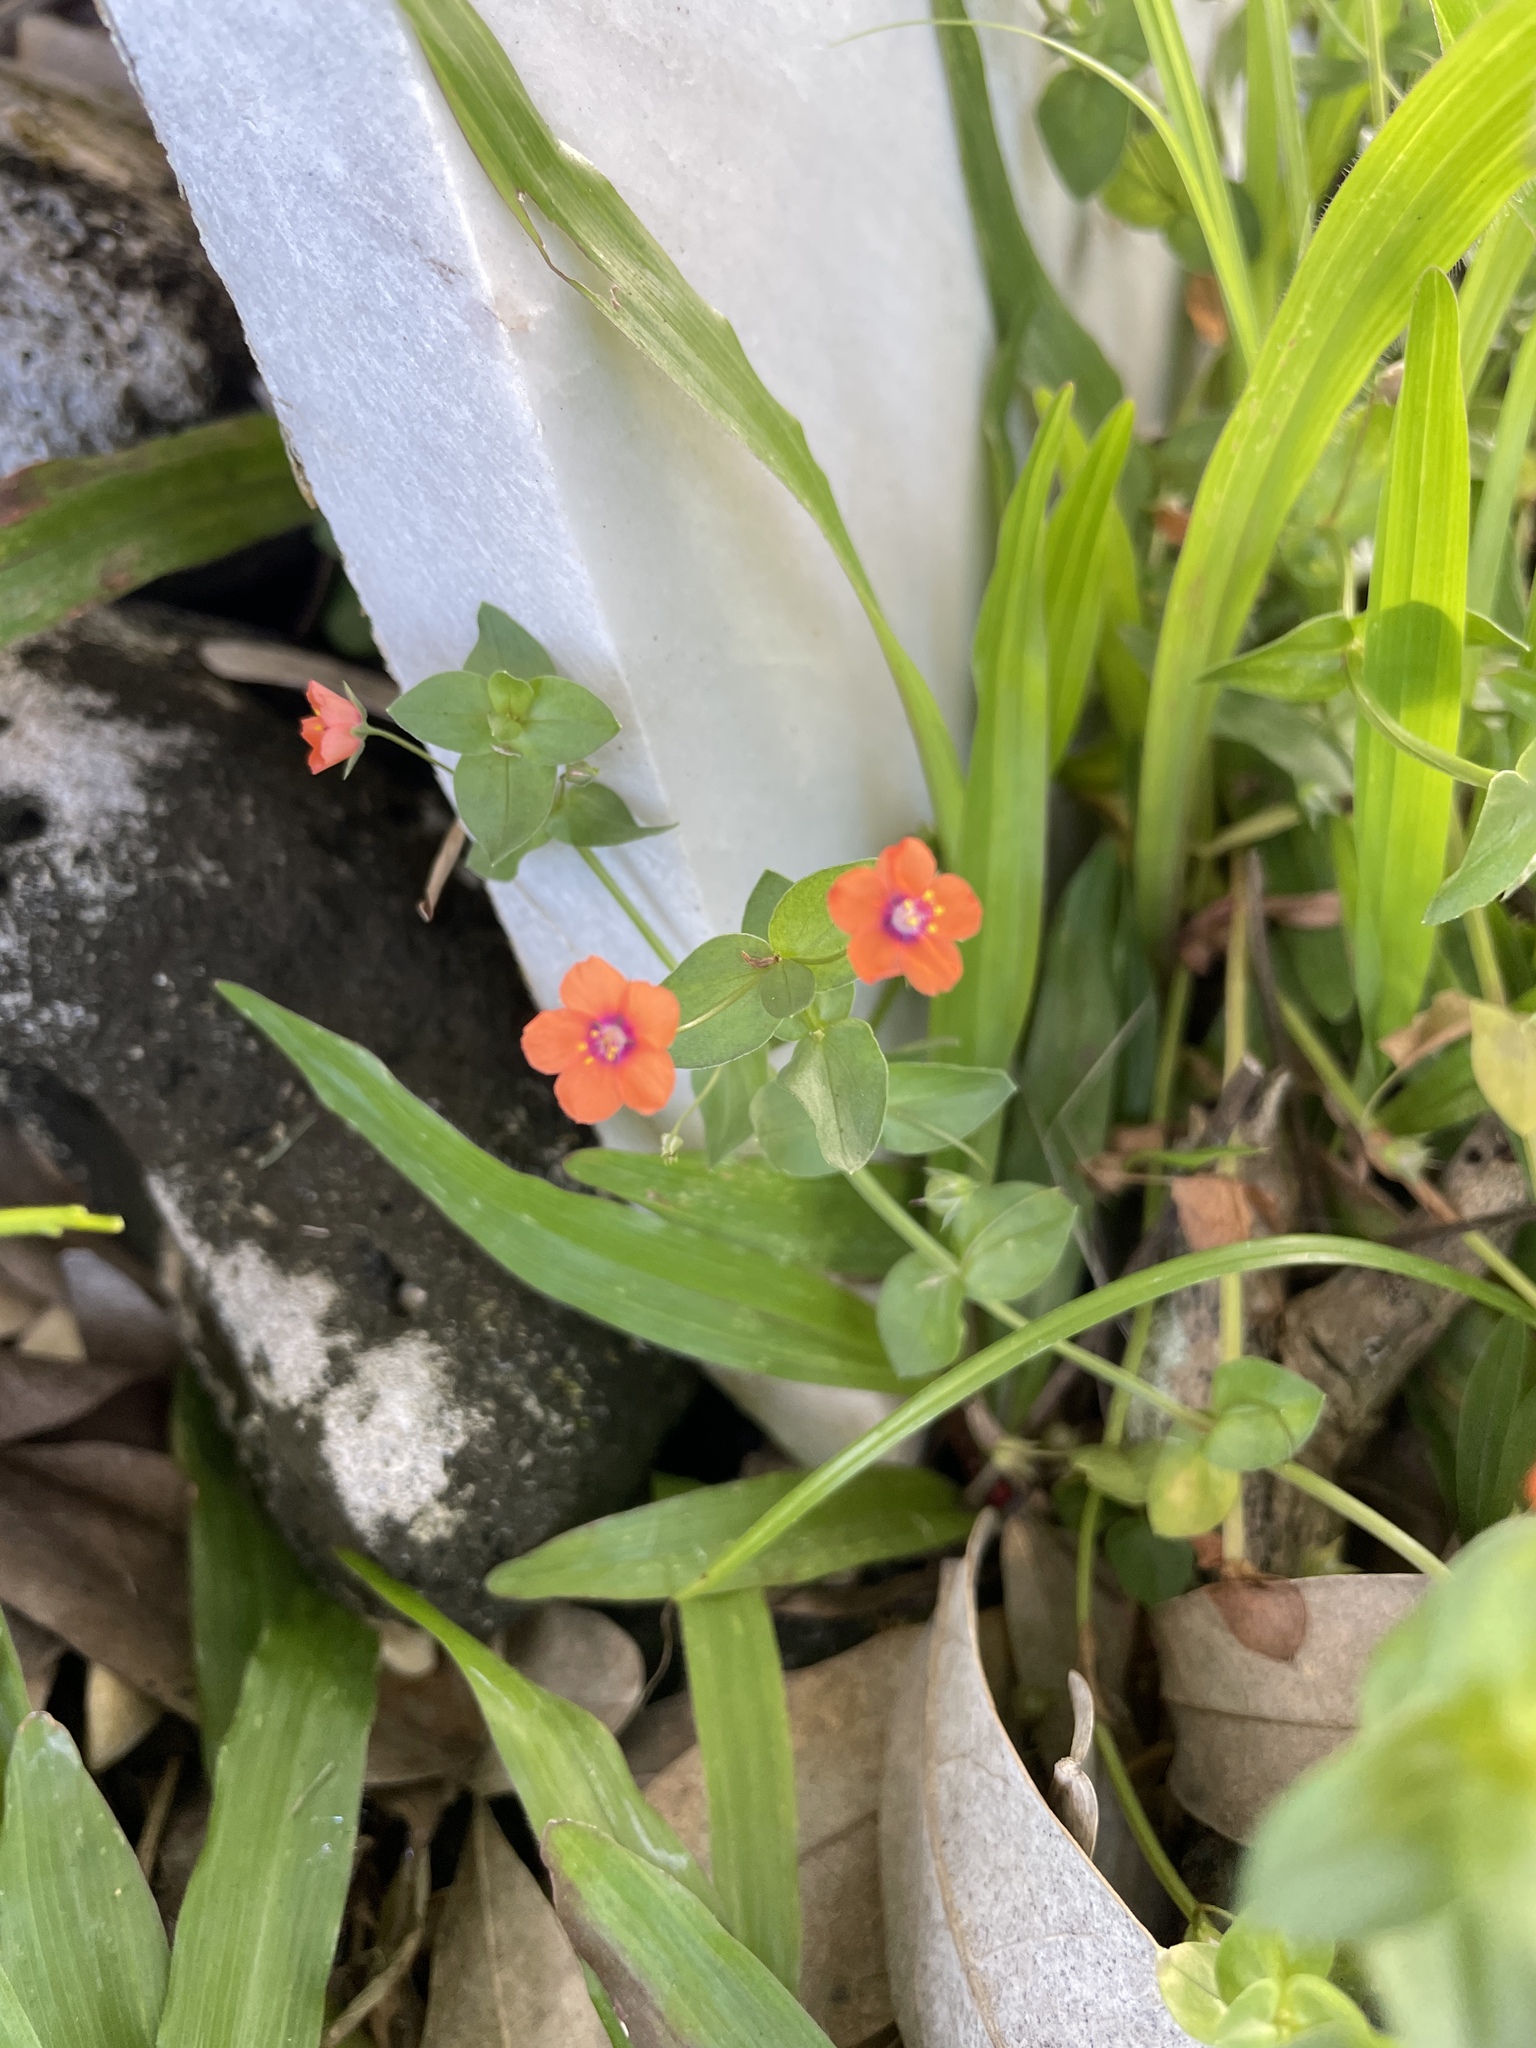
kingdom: Plantae
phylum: Tracheophyta
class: Magnoliopsida
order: Ericales
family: Primulaceae
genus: Lysimachia
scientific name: Lysimachia arvensis
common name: Scarlet pimpernel
